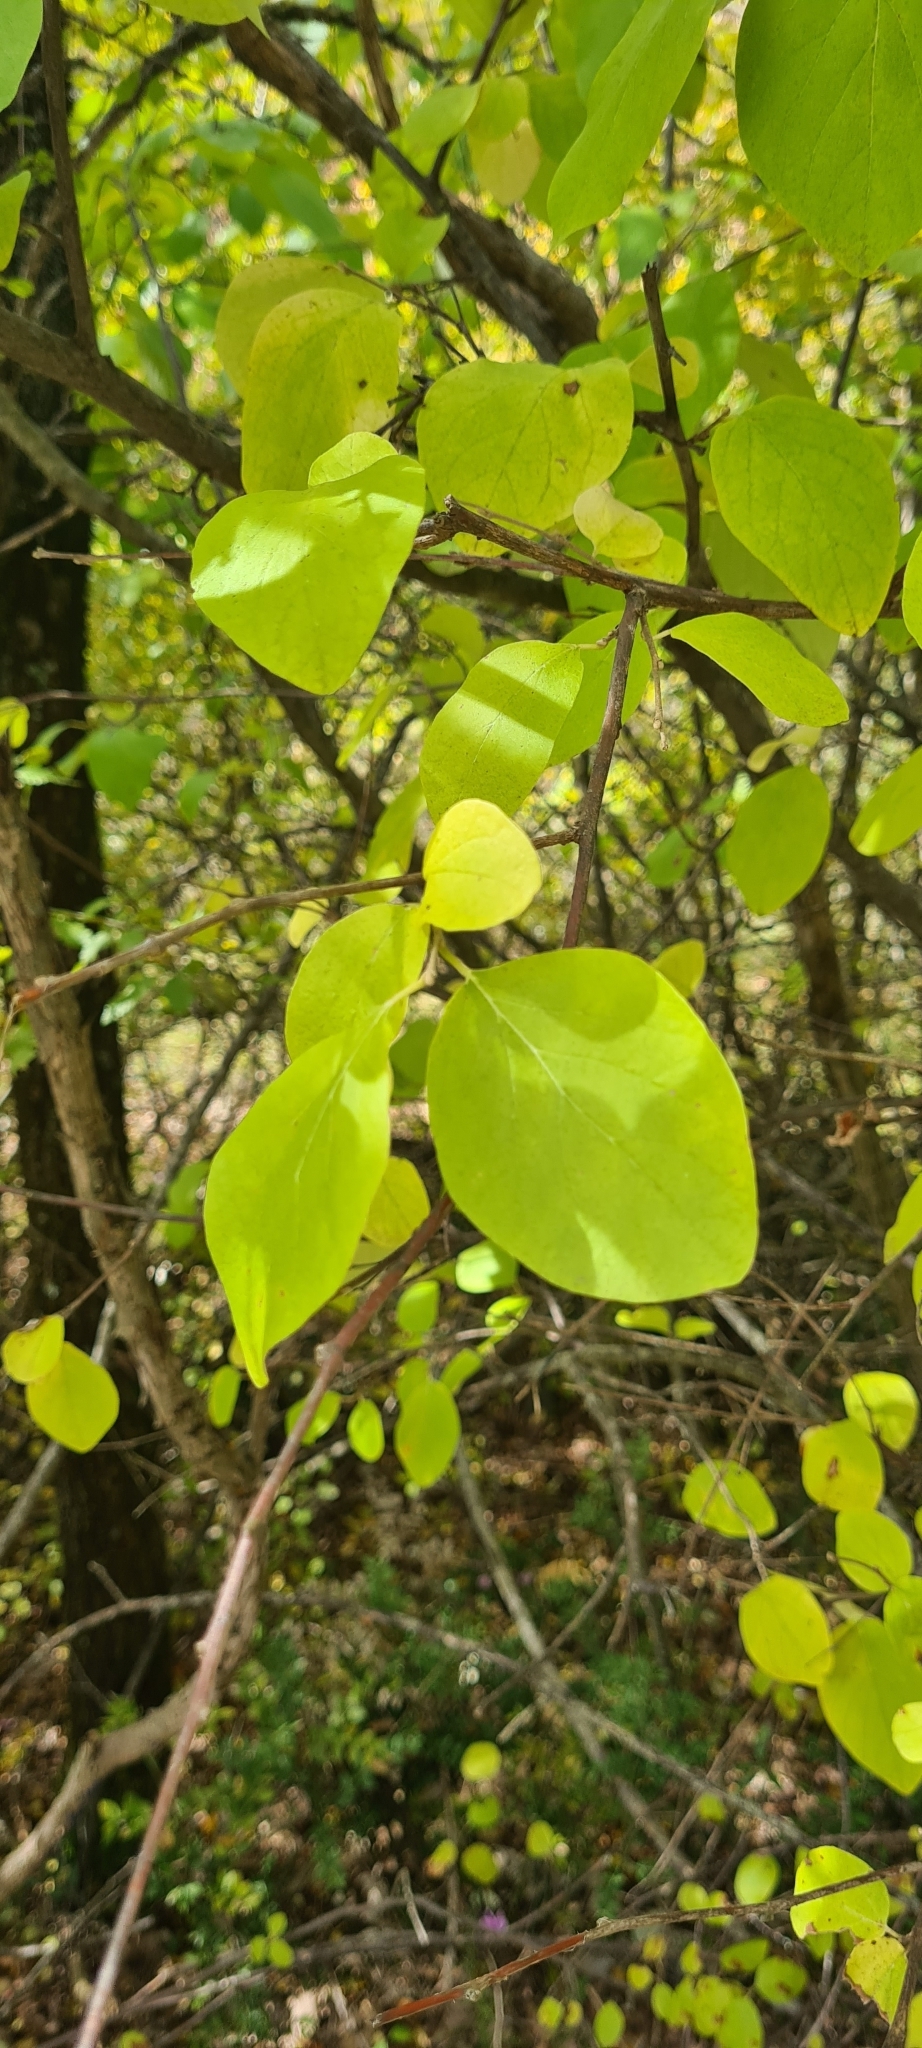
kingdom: Plantae
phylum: Tracheophyta
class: Magnoliopsida
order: Ericales
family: Styracaceae
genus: Styrax
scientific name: Styrax officinalis
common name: Storax
